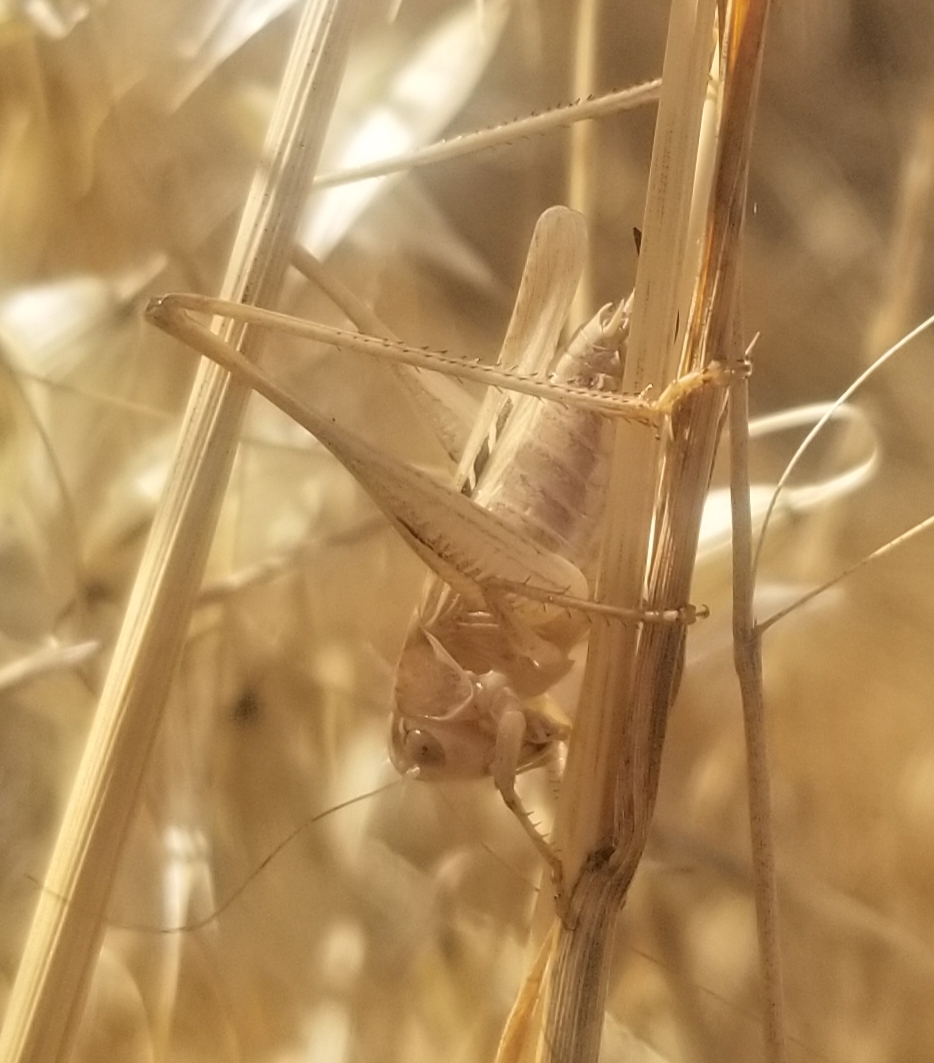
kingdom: Animalia
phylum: Arthropoda
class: Insecta
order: Orthoptera
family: Tettigoniidae
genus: Tessellana
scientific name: Tessellana tessellata
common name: Grasshopper
